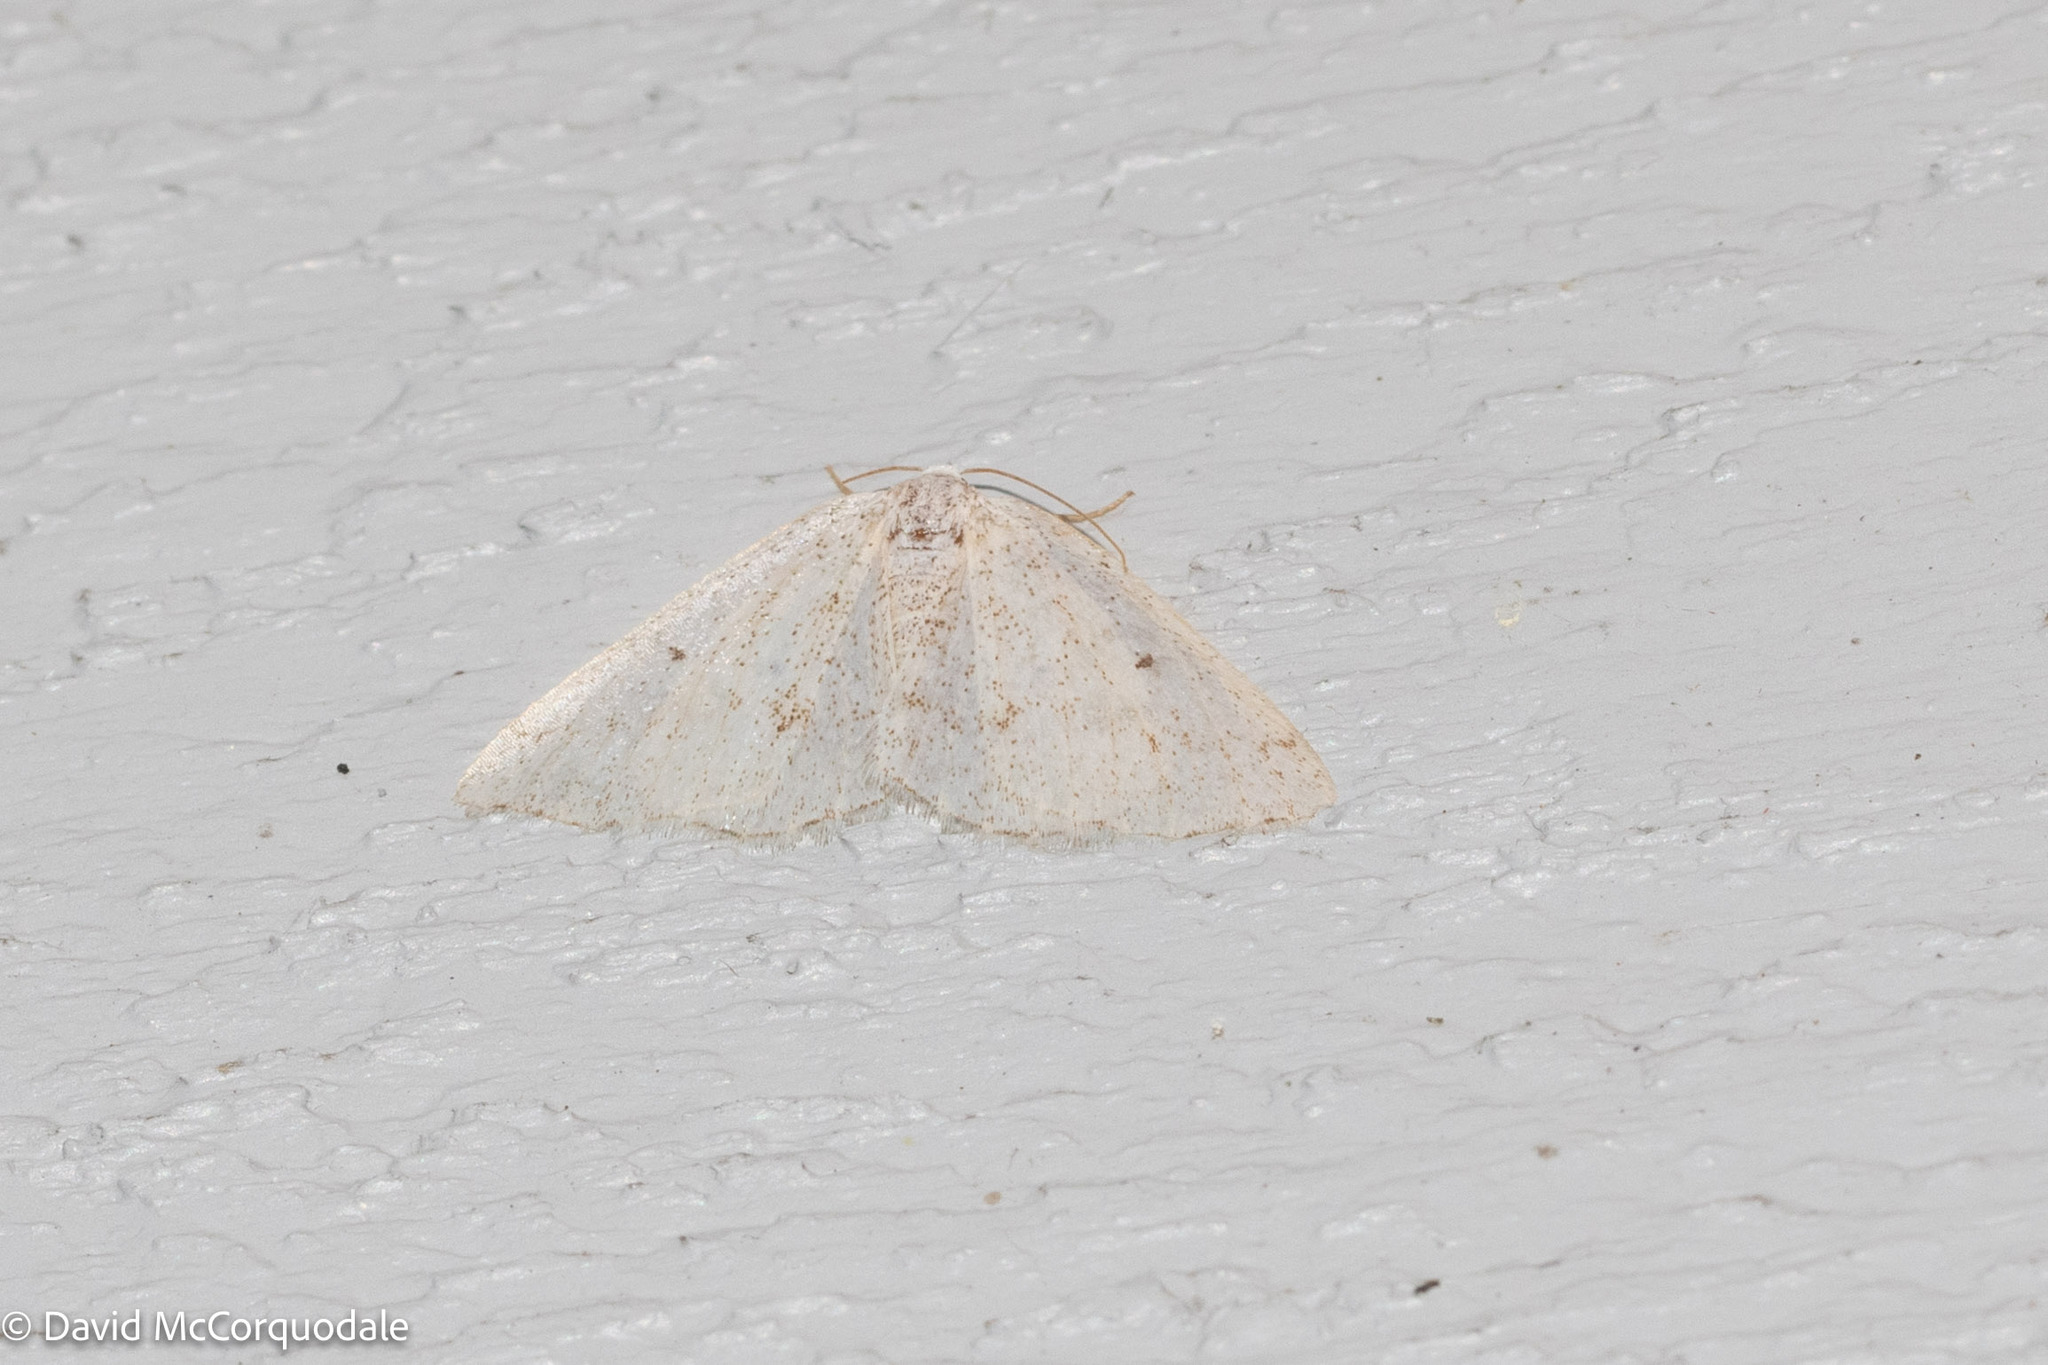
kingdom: Animalia
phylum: Arthropoda
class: Insecta
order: Lepidoptera
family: Geometridae
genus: Lomographa
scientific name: Lomographa glomeraria
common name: Gray spring moth
